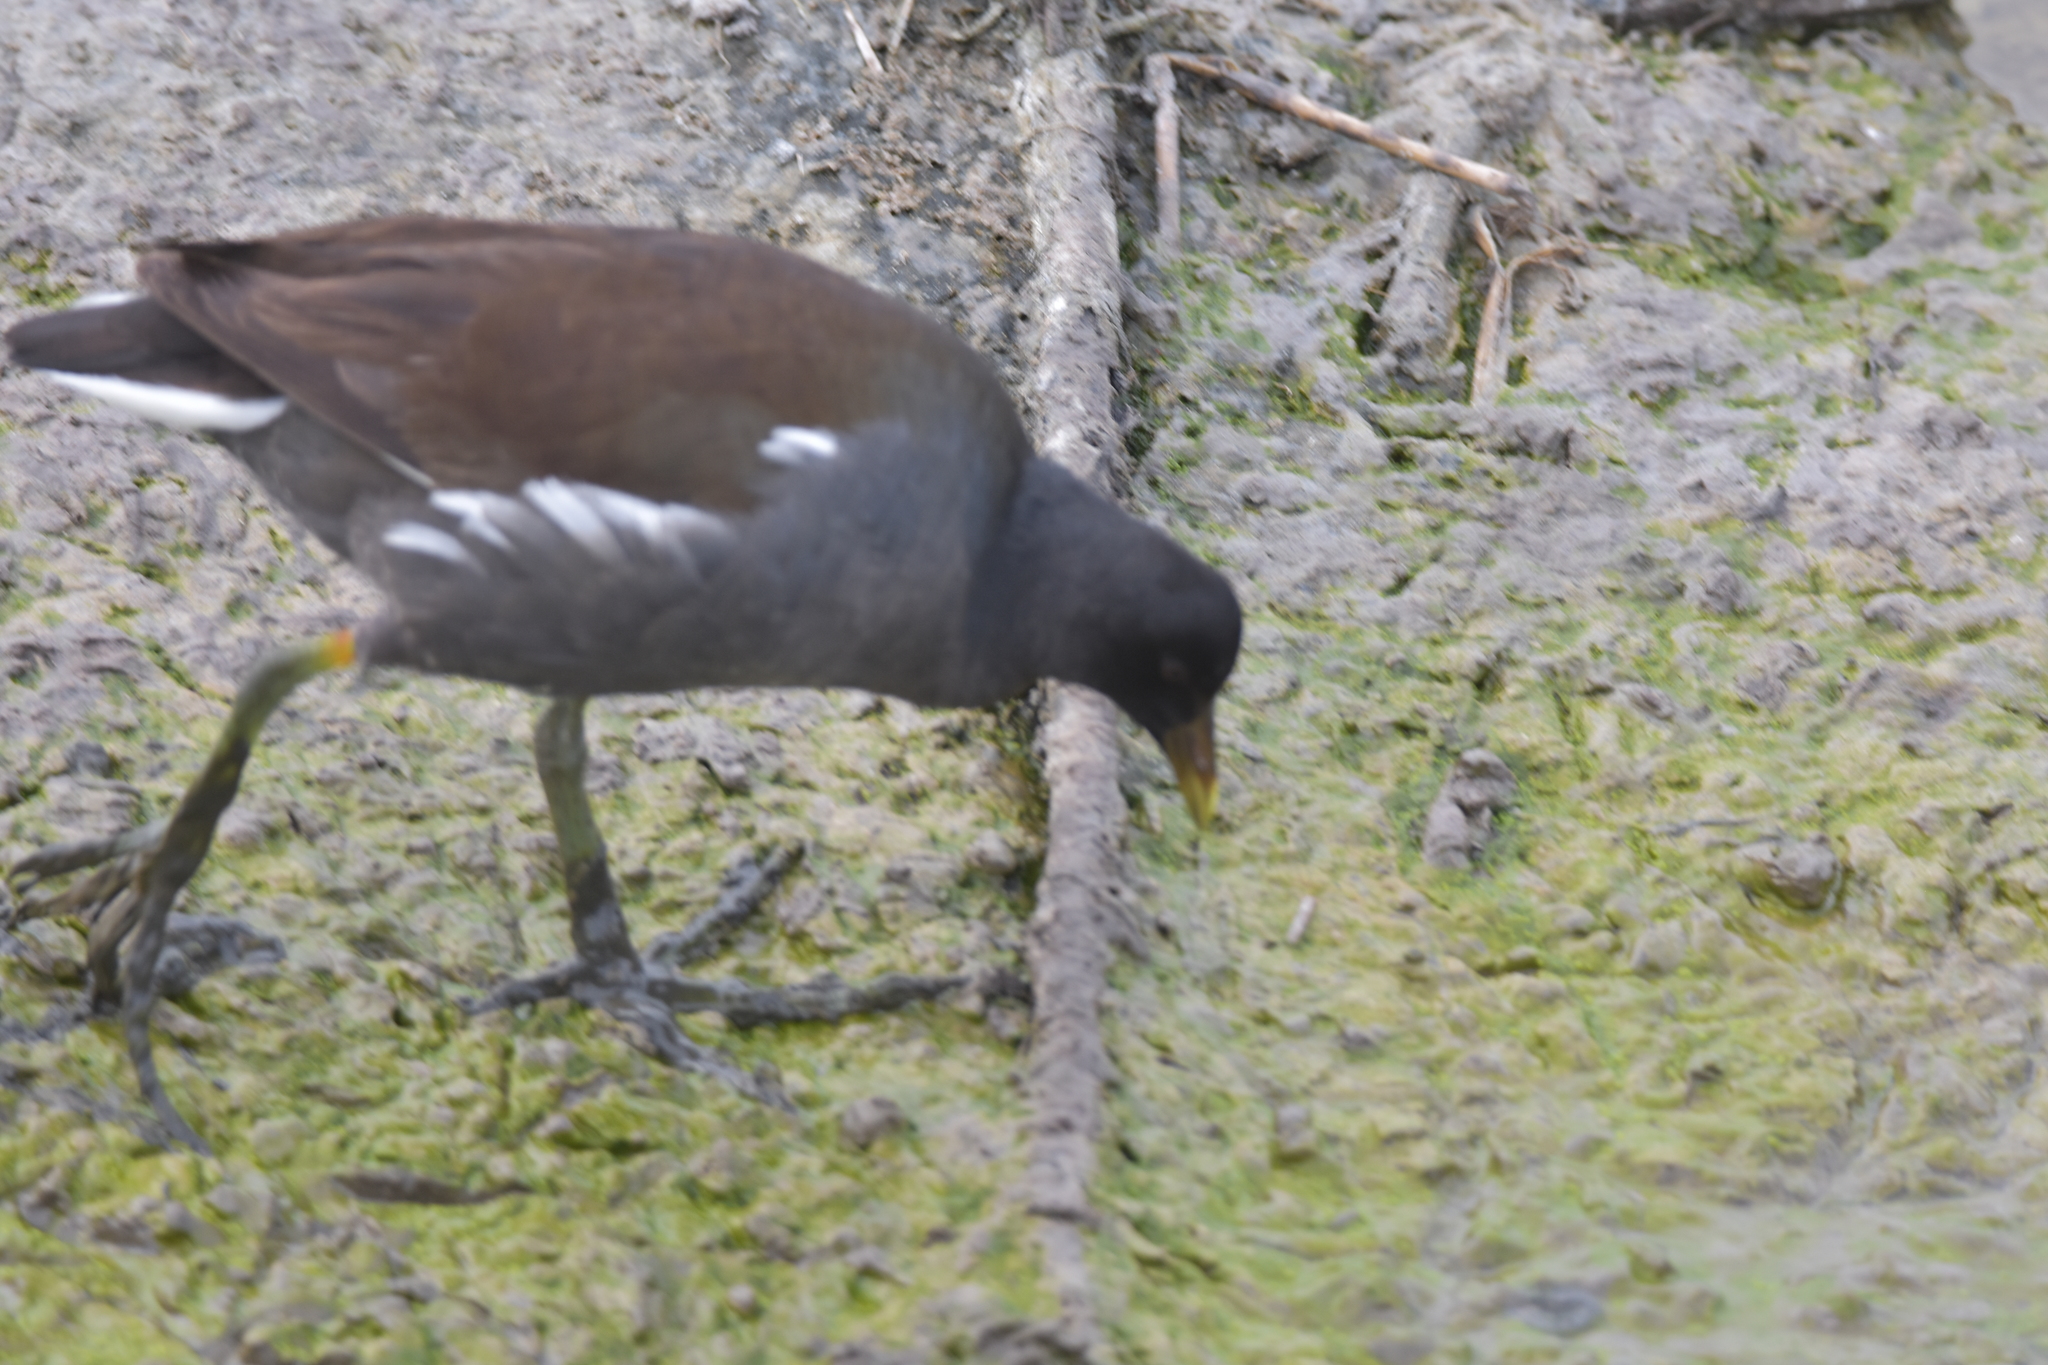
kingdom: Animalia
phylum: Chordata
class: Aves
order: Gruiformes
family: Rallidae
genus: Gallinula
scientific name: Gallinula chloropus
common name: Common moorhen
